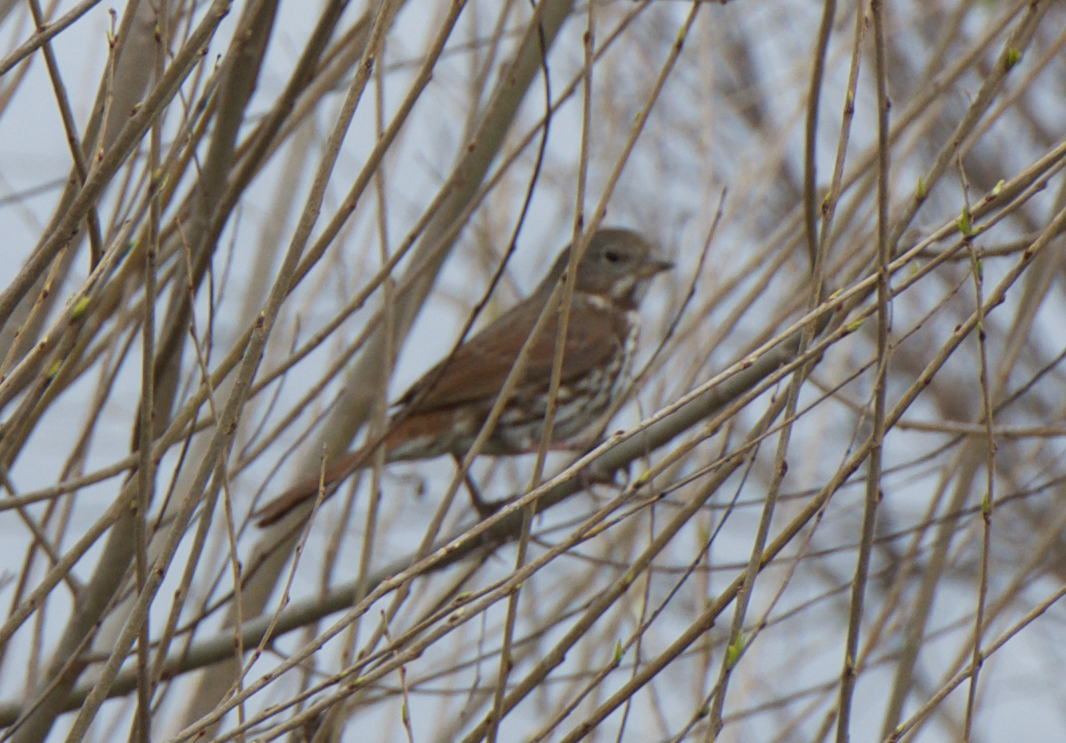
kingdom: Animalia
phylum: Chordata
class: Aves
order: Passeriformes
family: Passerellidae
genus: Passerella
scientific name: Passerella iliaca
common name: Fox sparrow
